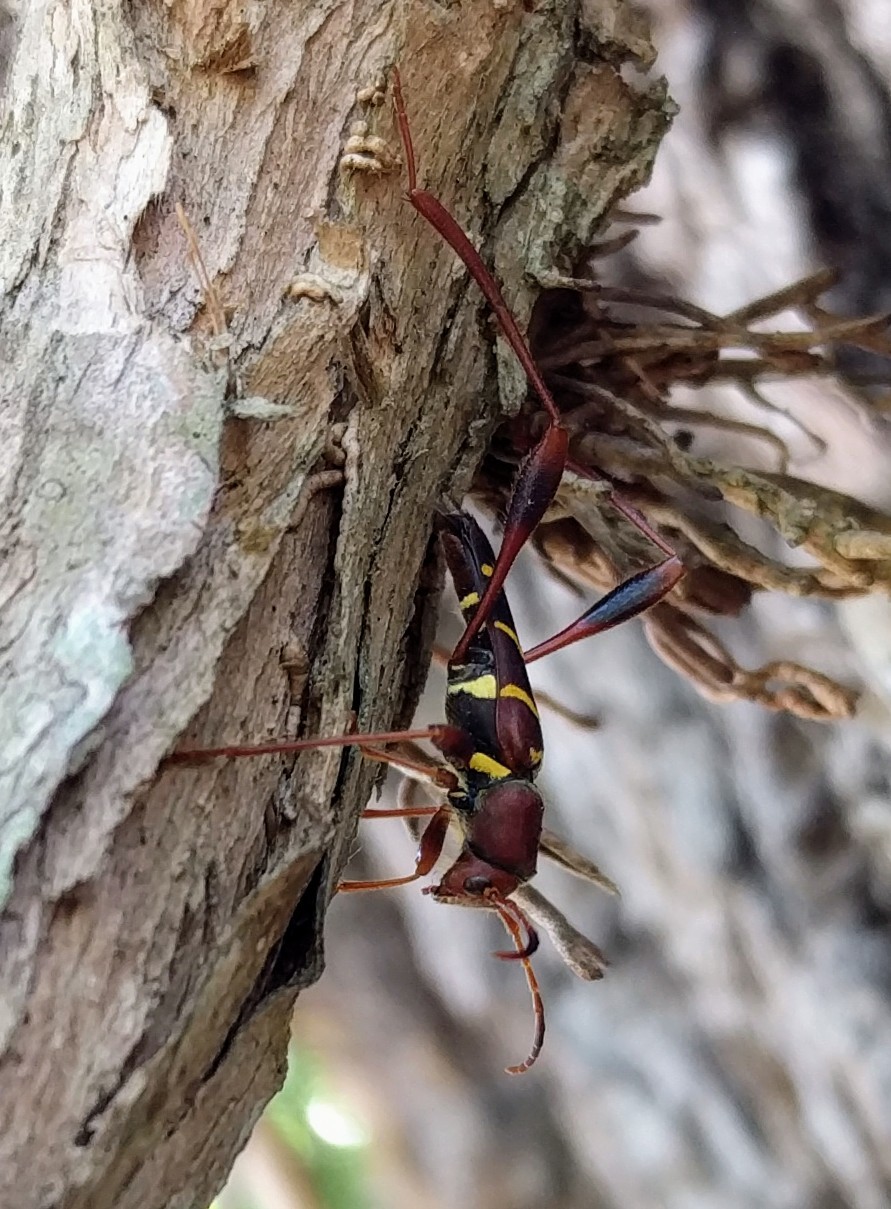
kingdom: Animalia
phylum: Arthropoda
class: Insecta
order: Coleoptera
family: Cerambycidae
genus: Neoclytus
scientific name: Neoclytus acuminatus
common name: Read-headed ash borer
